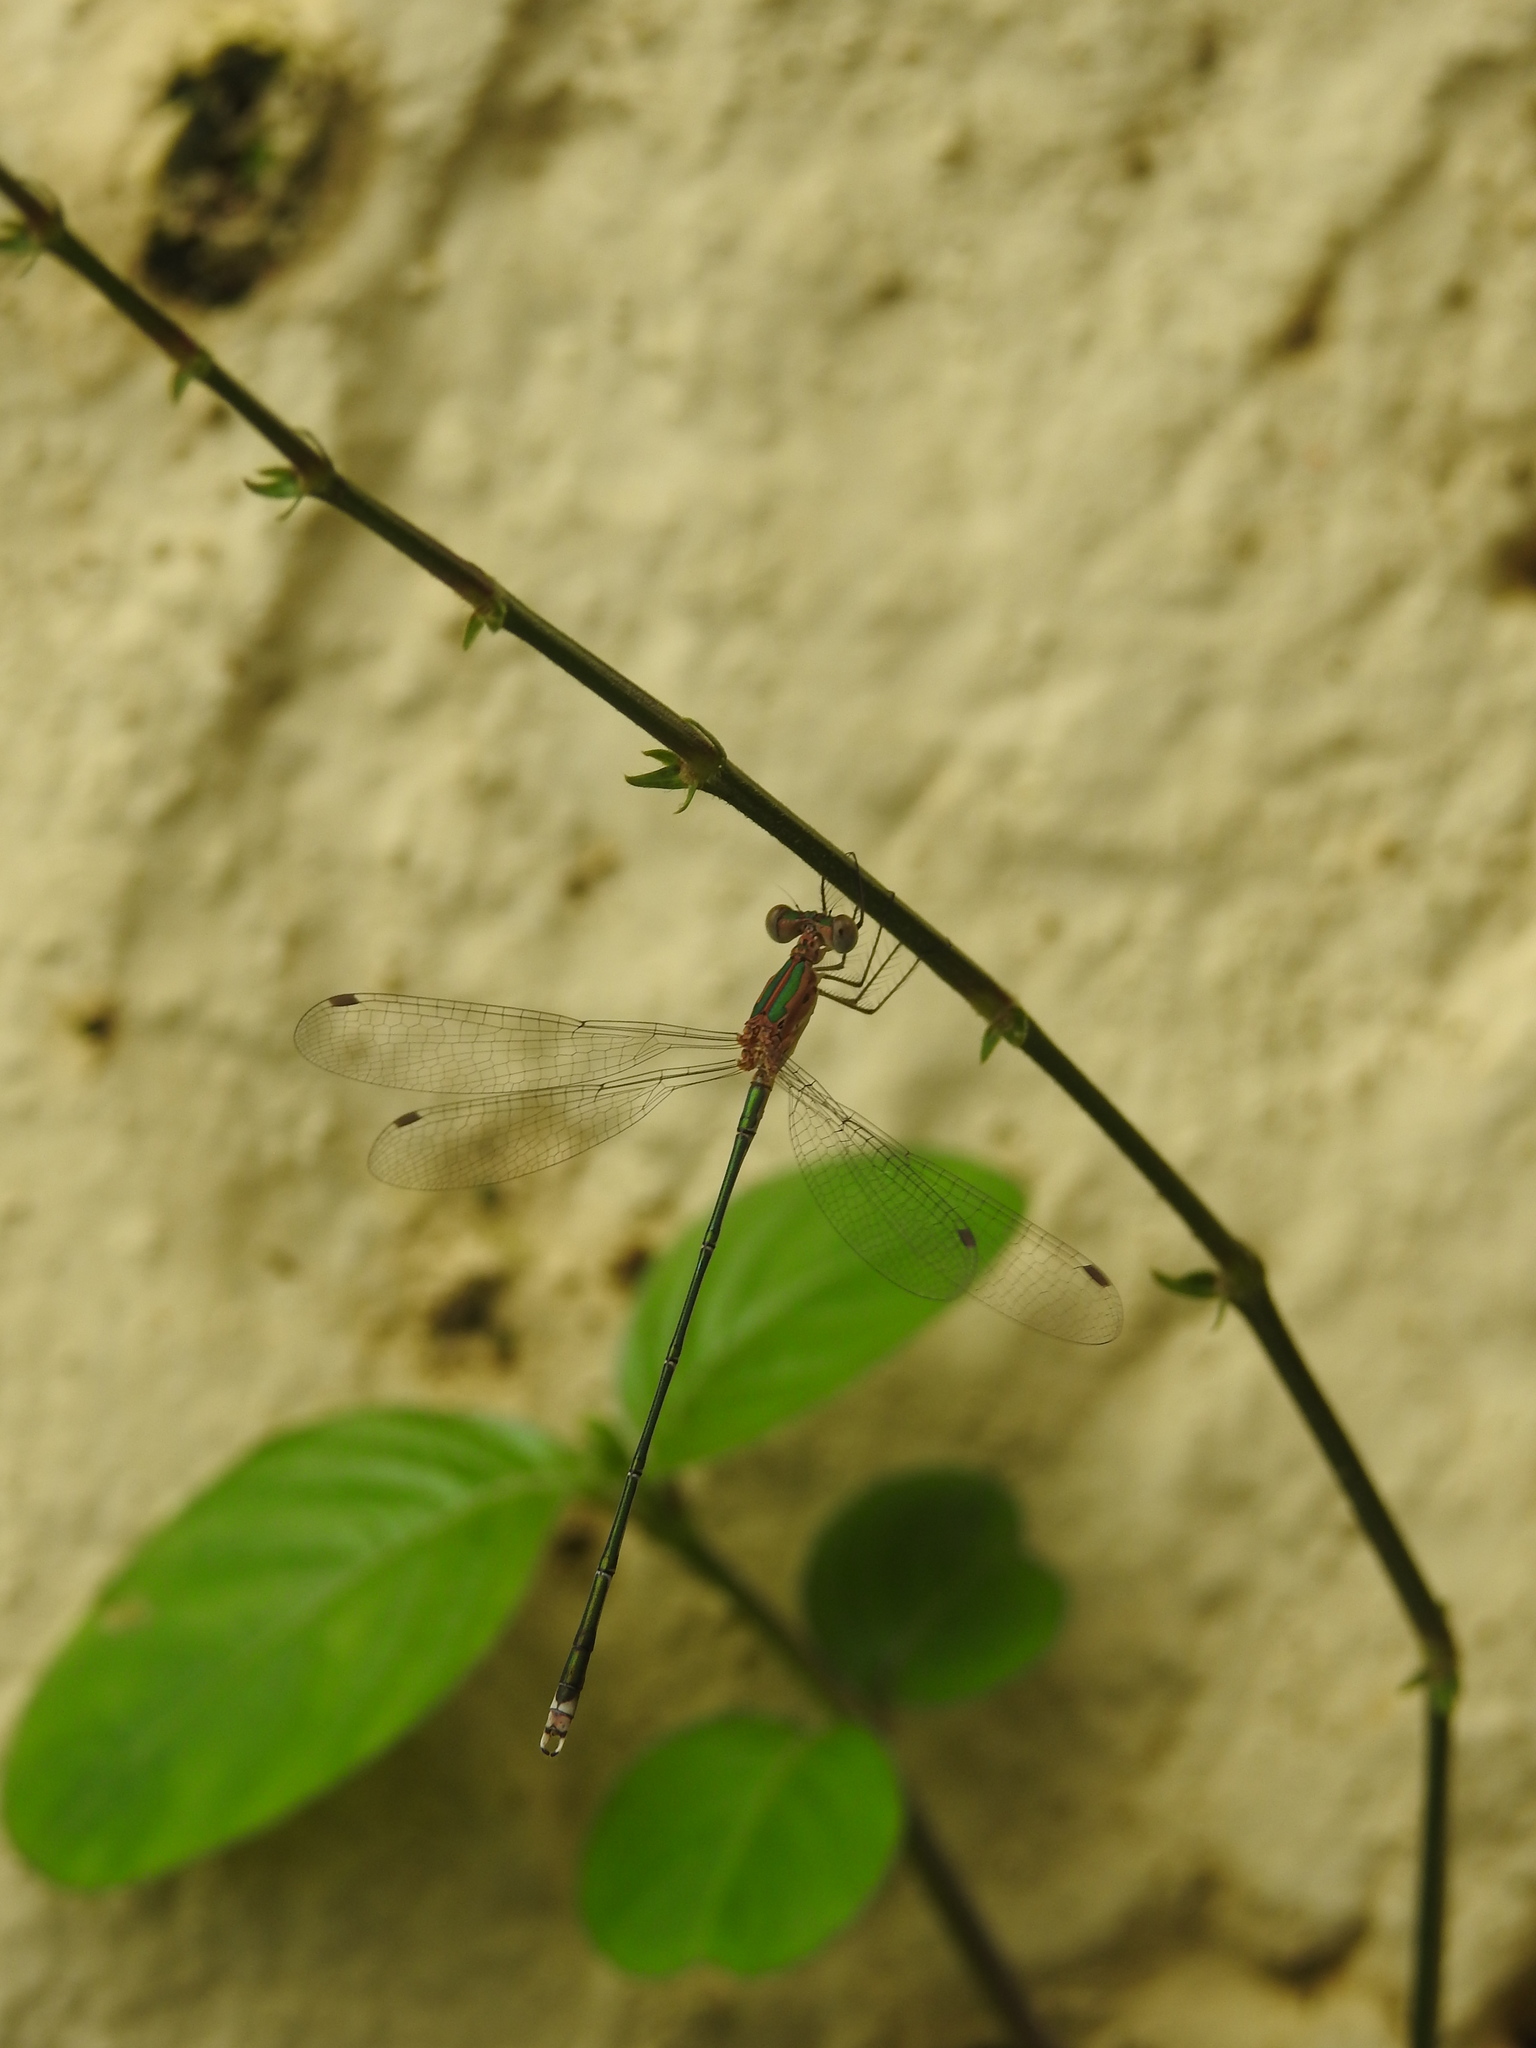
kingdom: Animalia
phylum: Arthropoda
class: Insecta
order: Odonata
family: Lestidae
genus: Lestes
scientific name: Lestes elatus
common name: Emerald spreadwing
